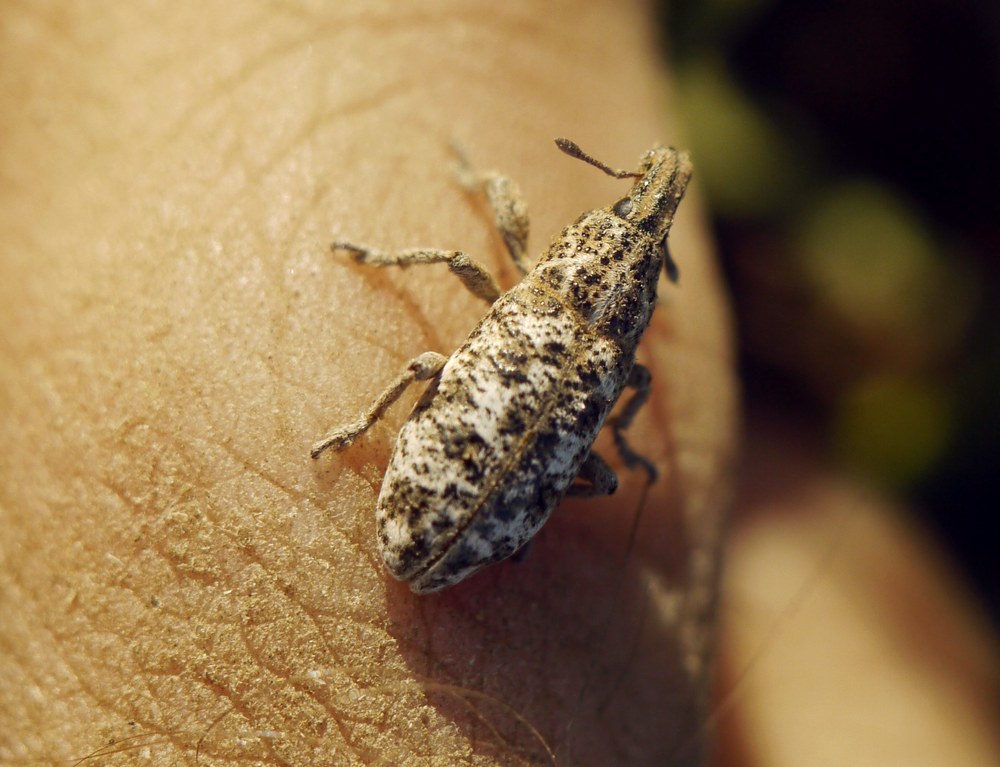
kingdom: Animalia
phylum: Arthropoda
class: Insecta
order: Coleoptera
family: Curculionidae
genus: Cyphocleonus
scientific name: Cyphocleonus dealbatus
